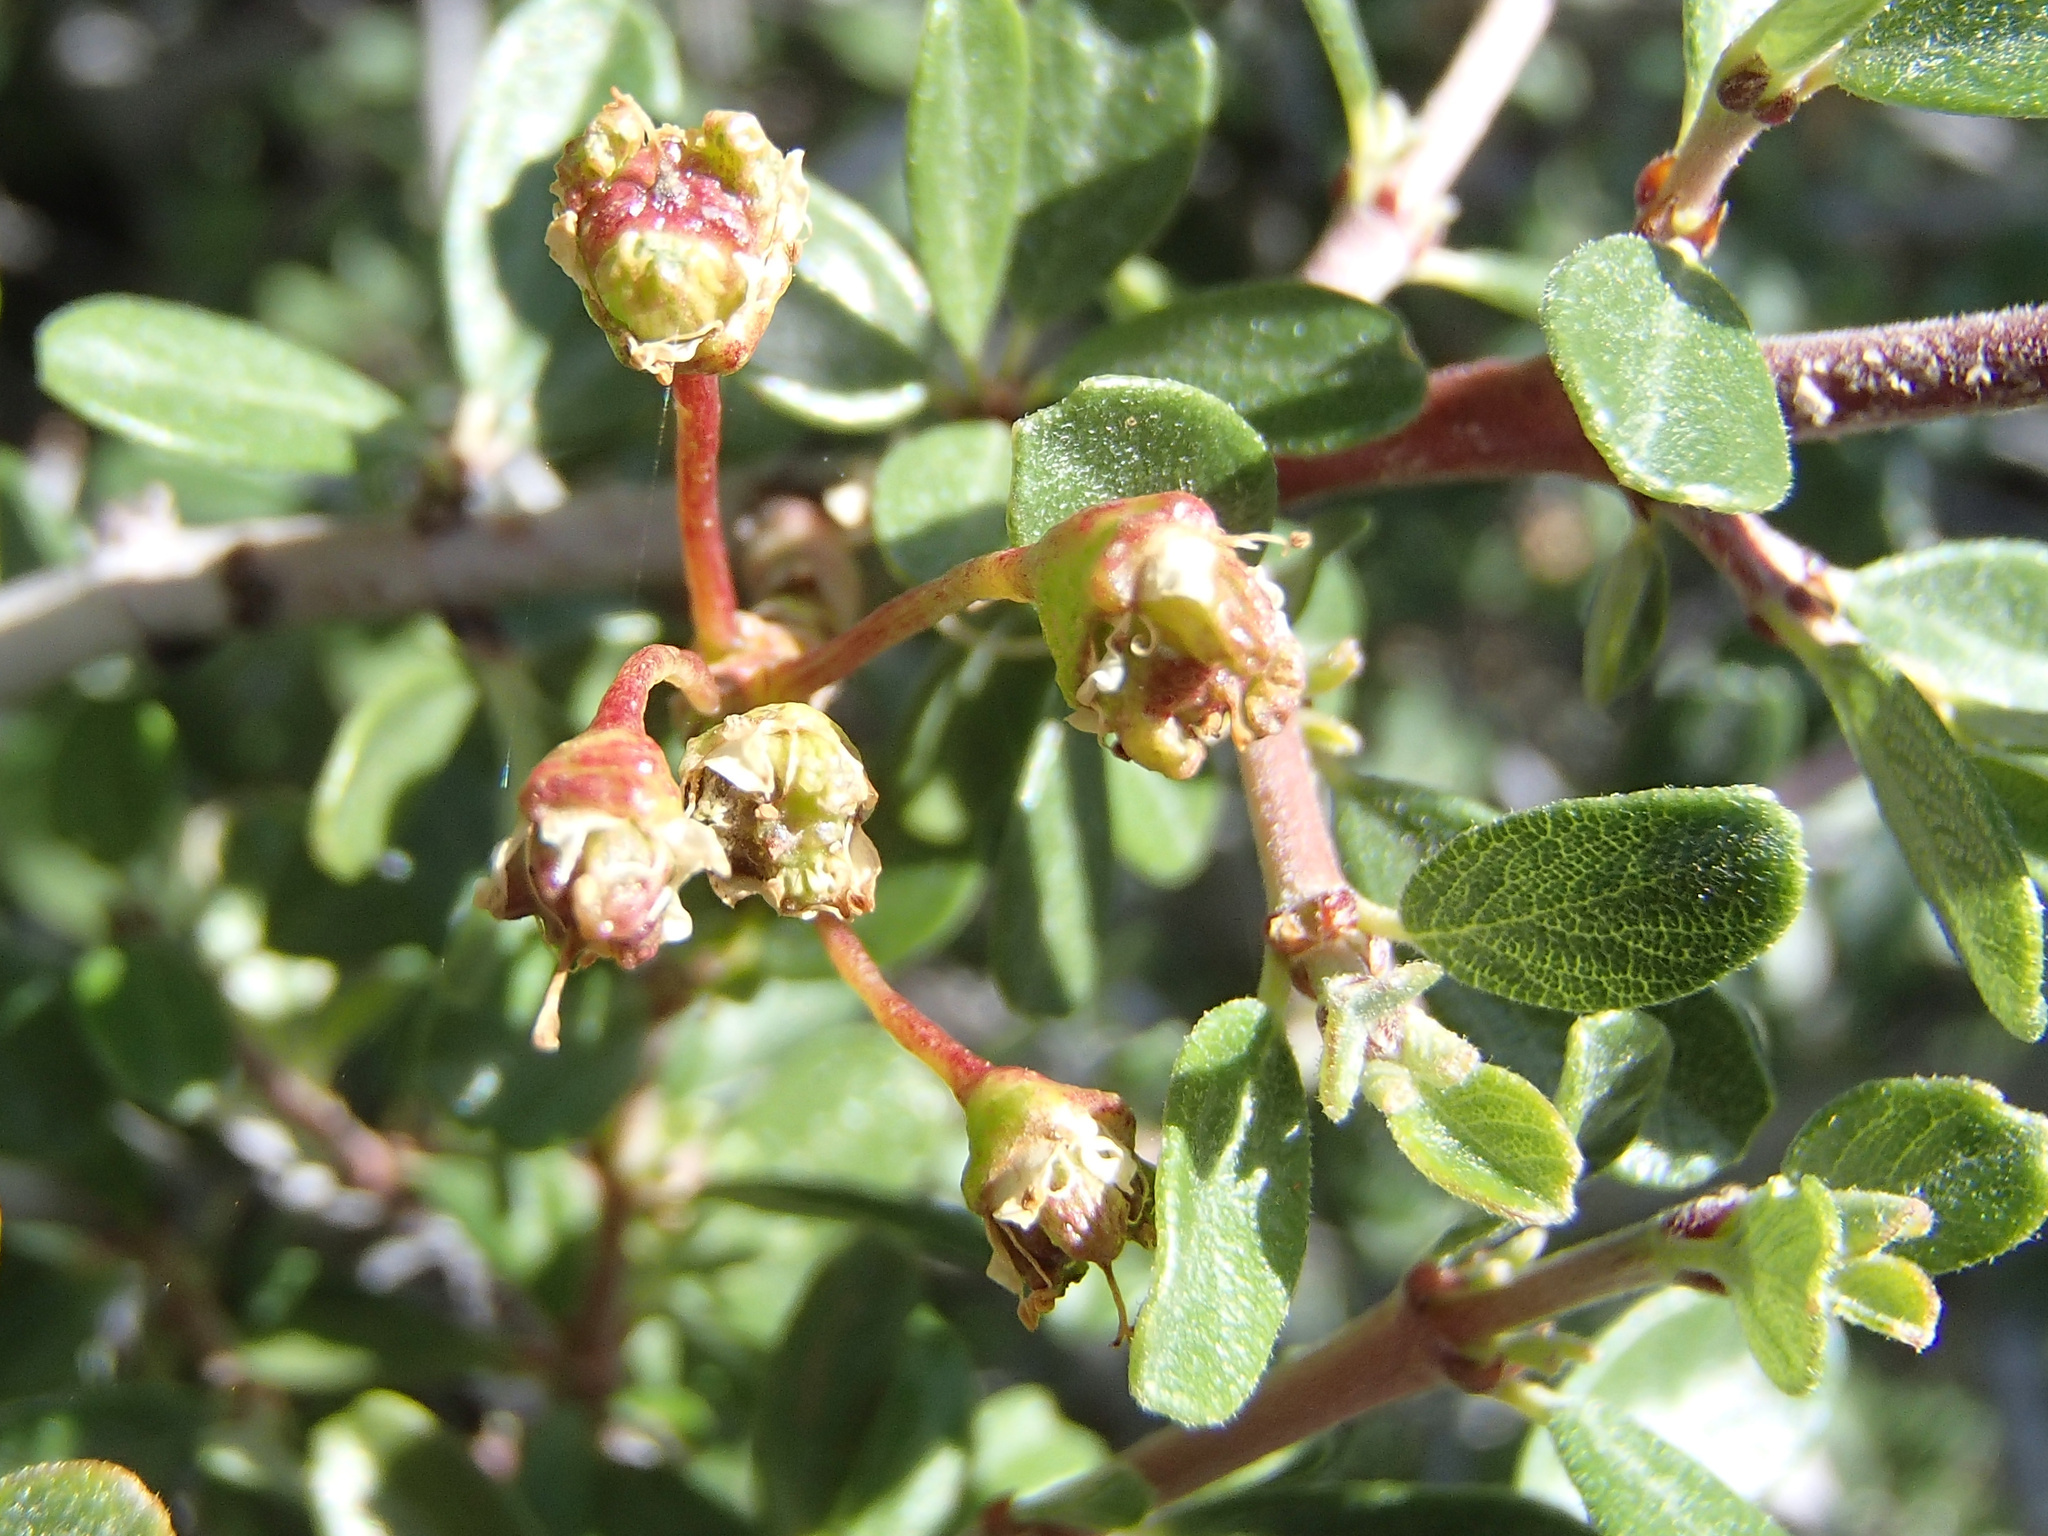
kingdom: Plantae
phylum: Tracheophyta
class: Magnoliopsida
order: Rosales
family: Rhamnaceae
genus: Ceanothus
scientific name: Ceanothus cuneatus
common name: Cuneate ceanothus
